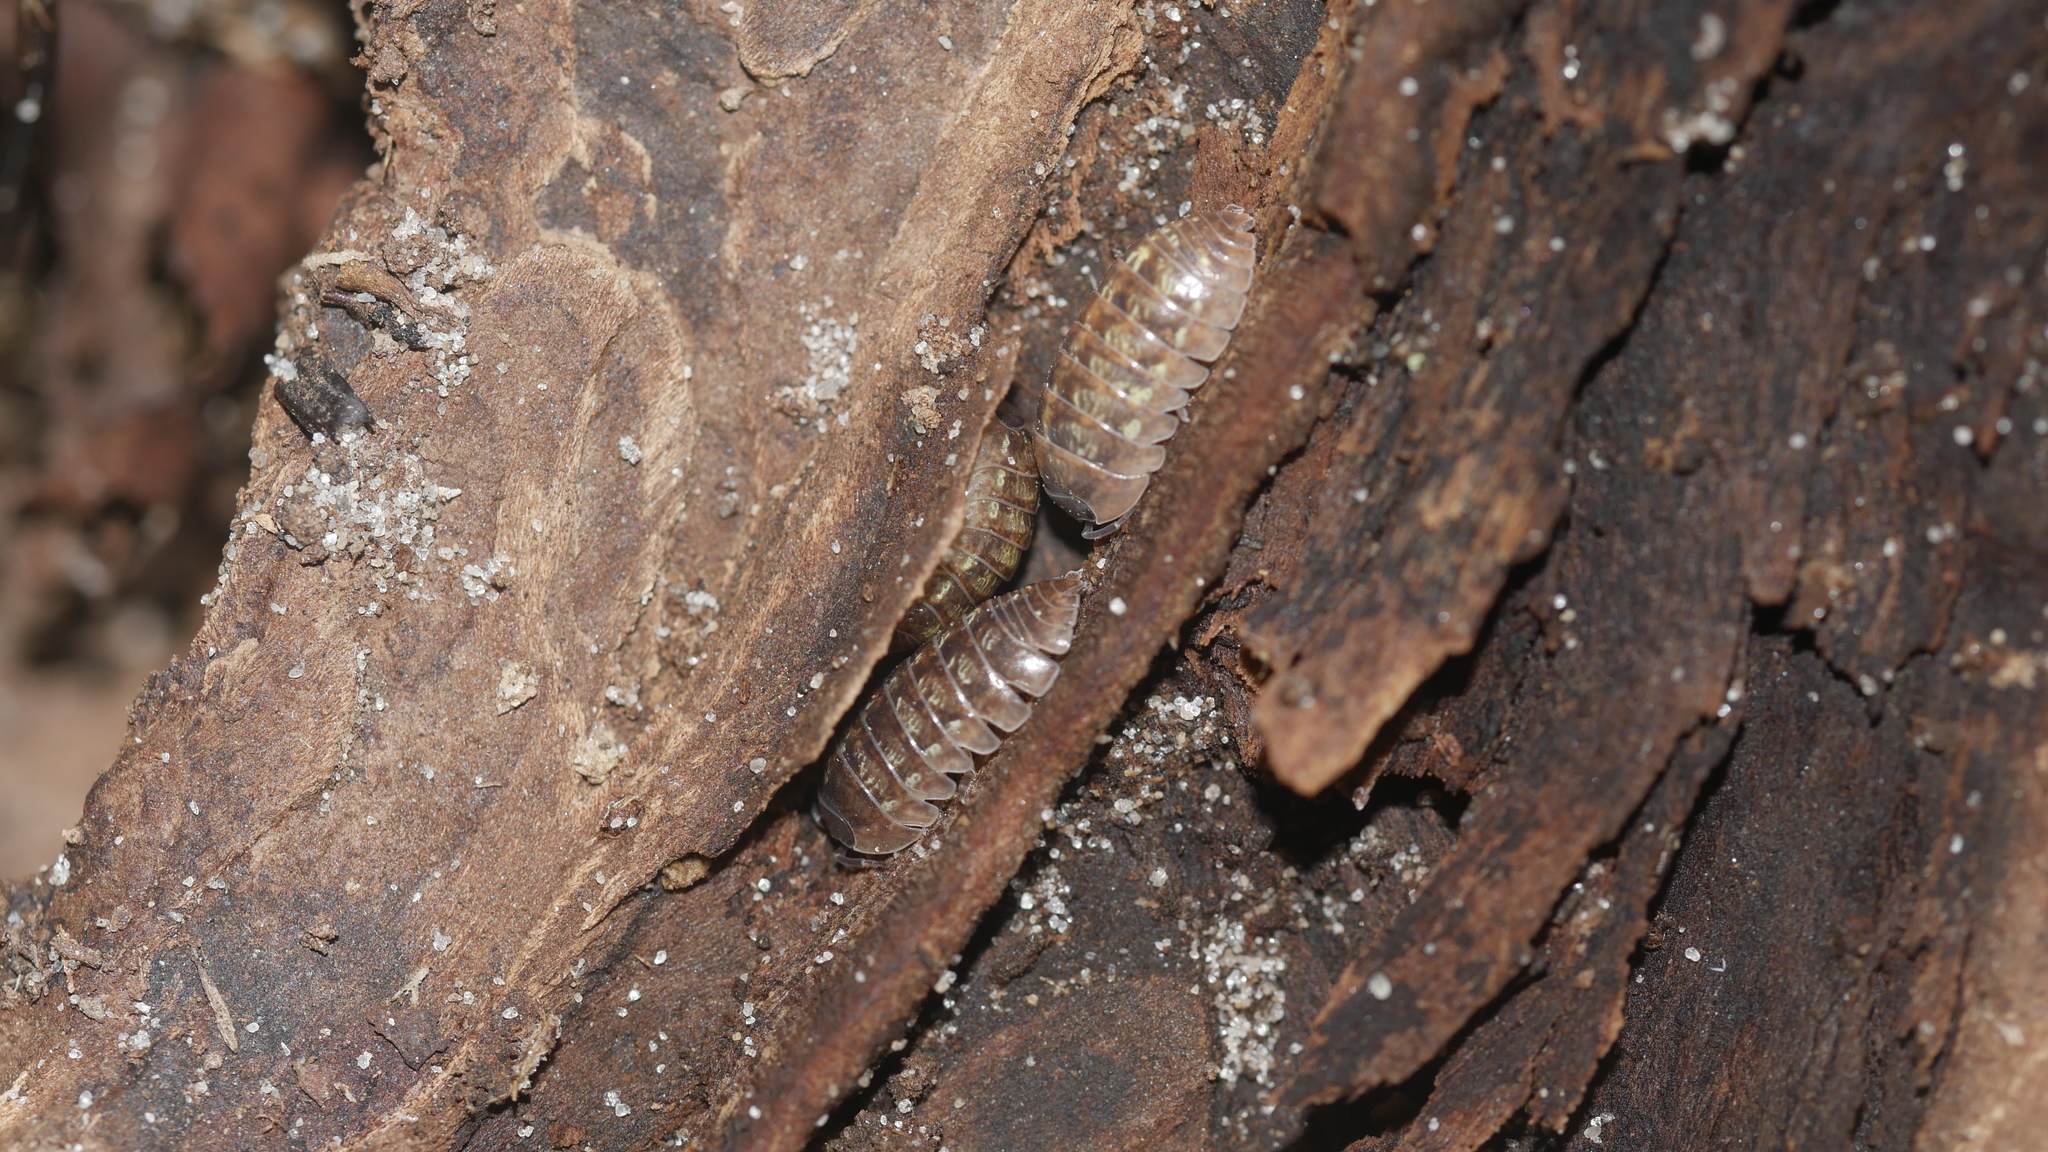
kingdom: Animalia
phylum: Arthropoda
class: Malacostraca
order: Isopoda
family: Armadillidiidae
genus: Armadillidium
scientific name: Armadillidium vulgare
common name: Common pill woodlouse
